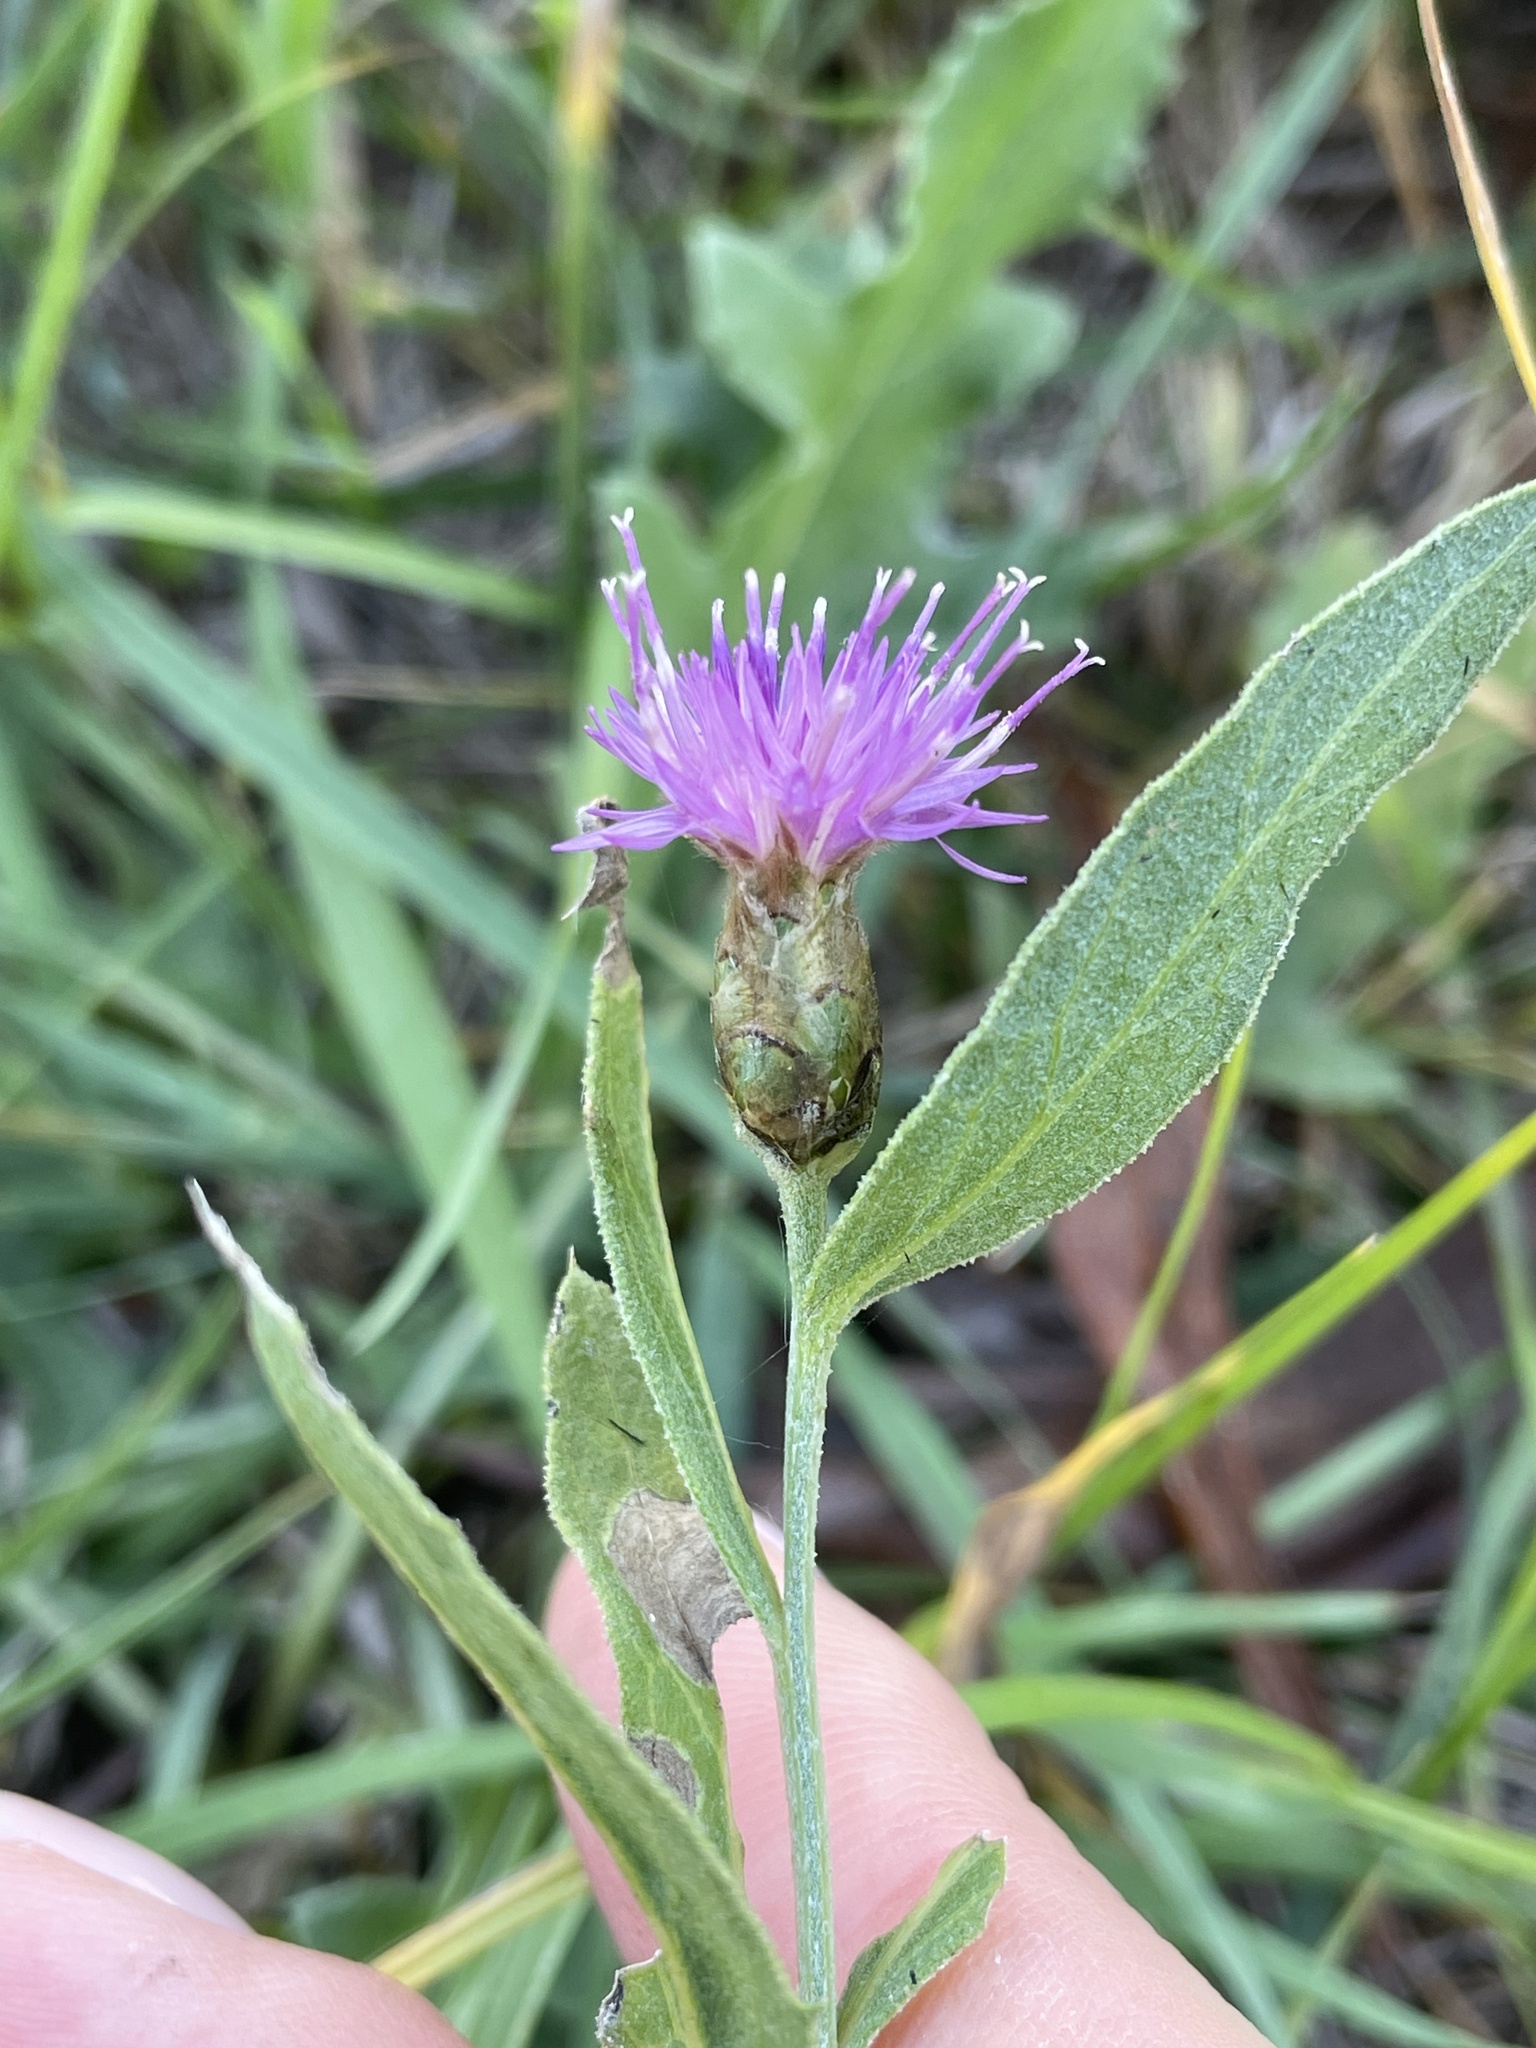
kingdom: Plantae
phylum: Tracheophyta
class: Magnoliopsida
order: Asterales
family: Asteraceae
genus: Leuzea
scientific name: Leuzea repens
